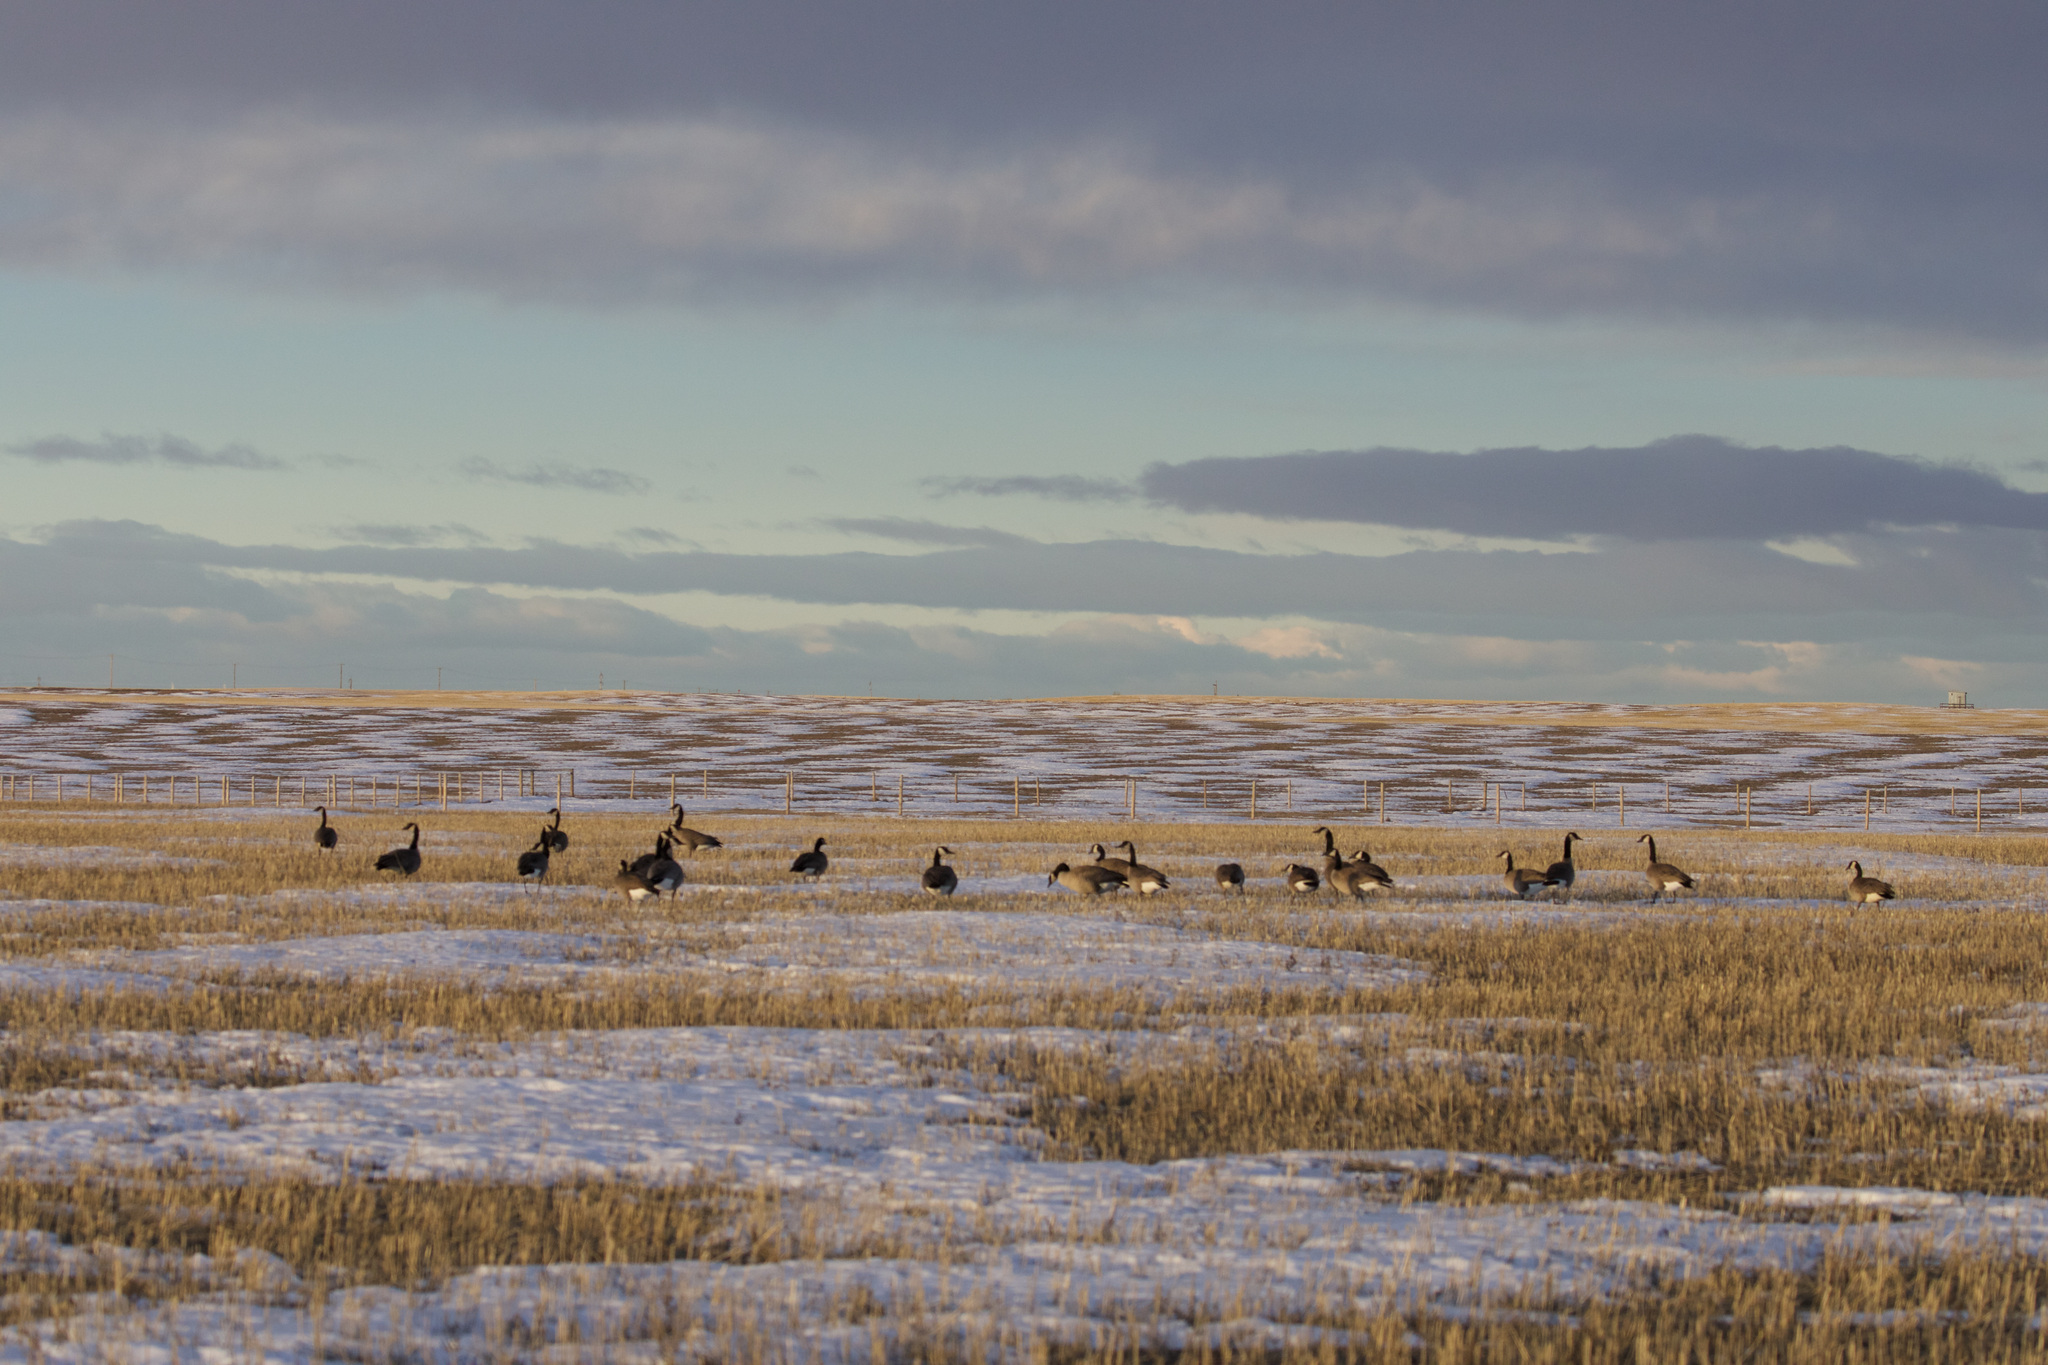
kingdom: Animalia
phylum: Chordata
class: Aves
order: Anseriformes
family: Anatidae
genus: Branta
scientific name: Branta canadensis
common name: Canada goose
